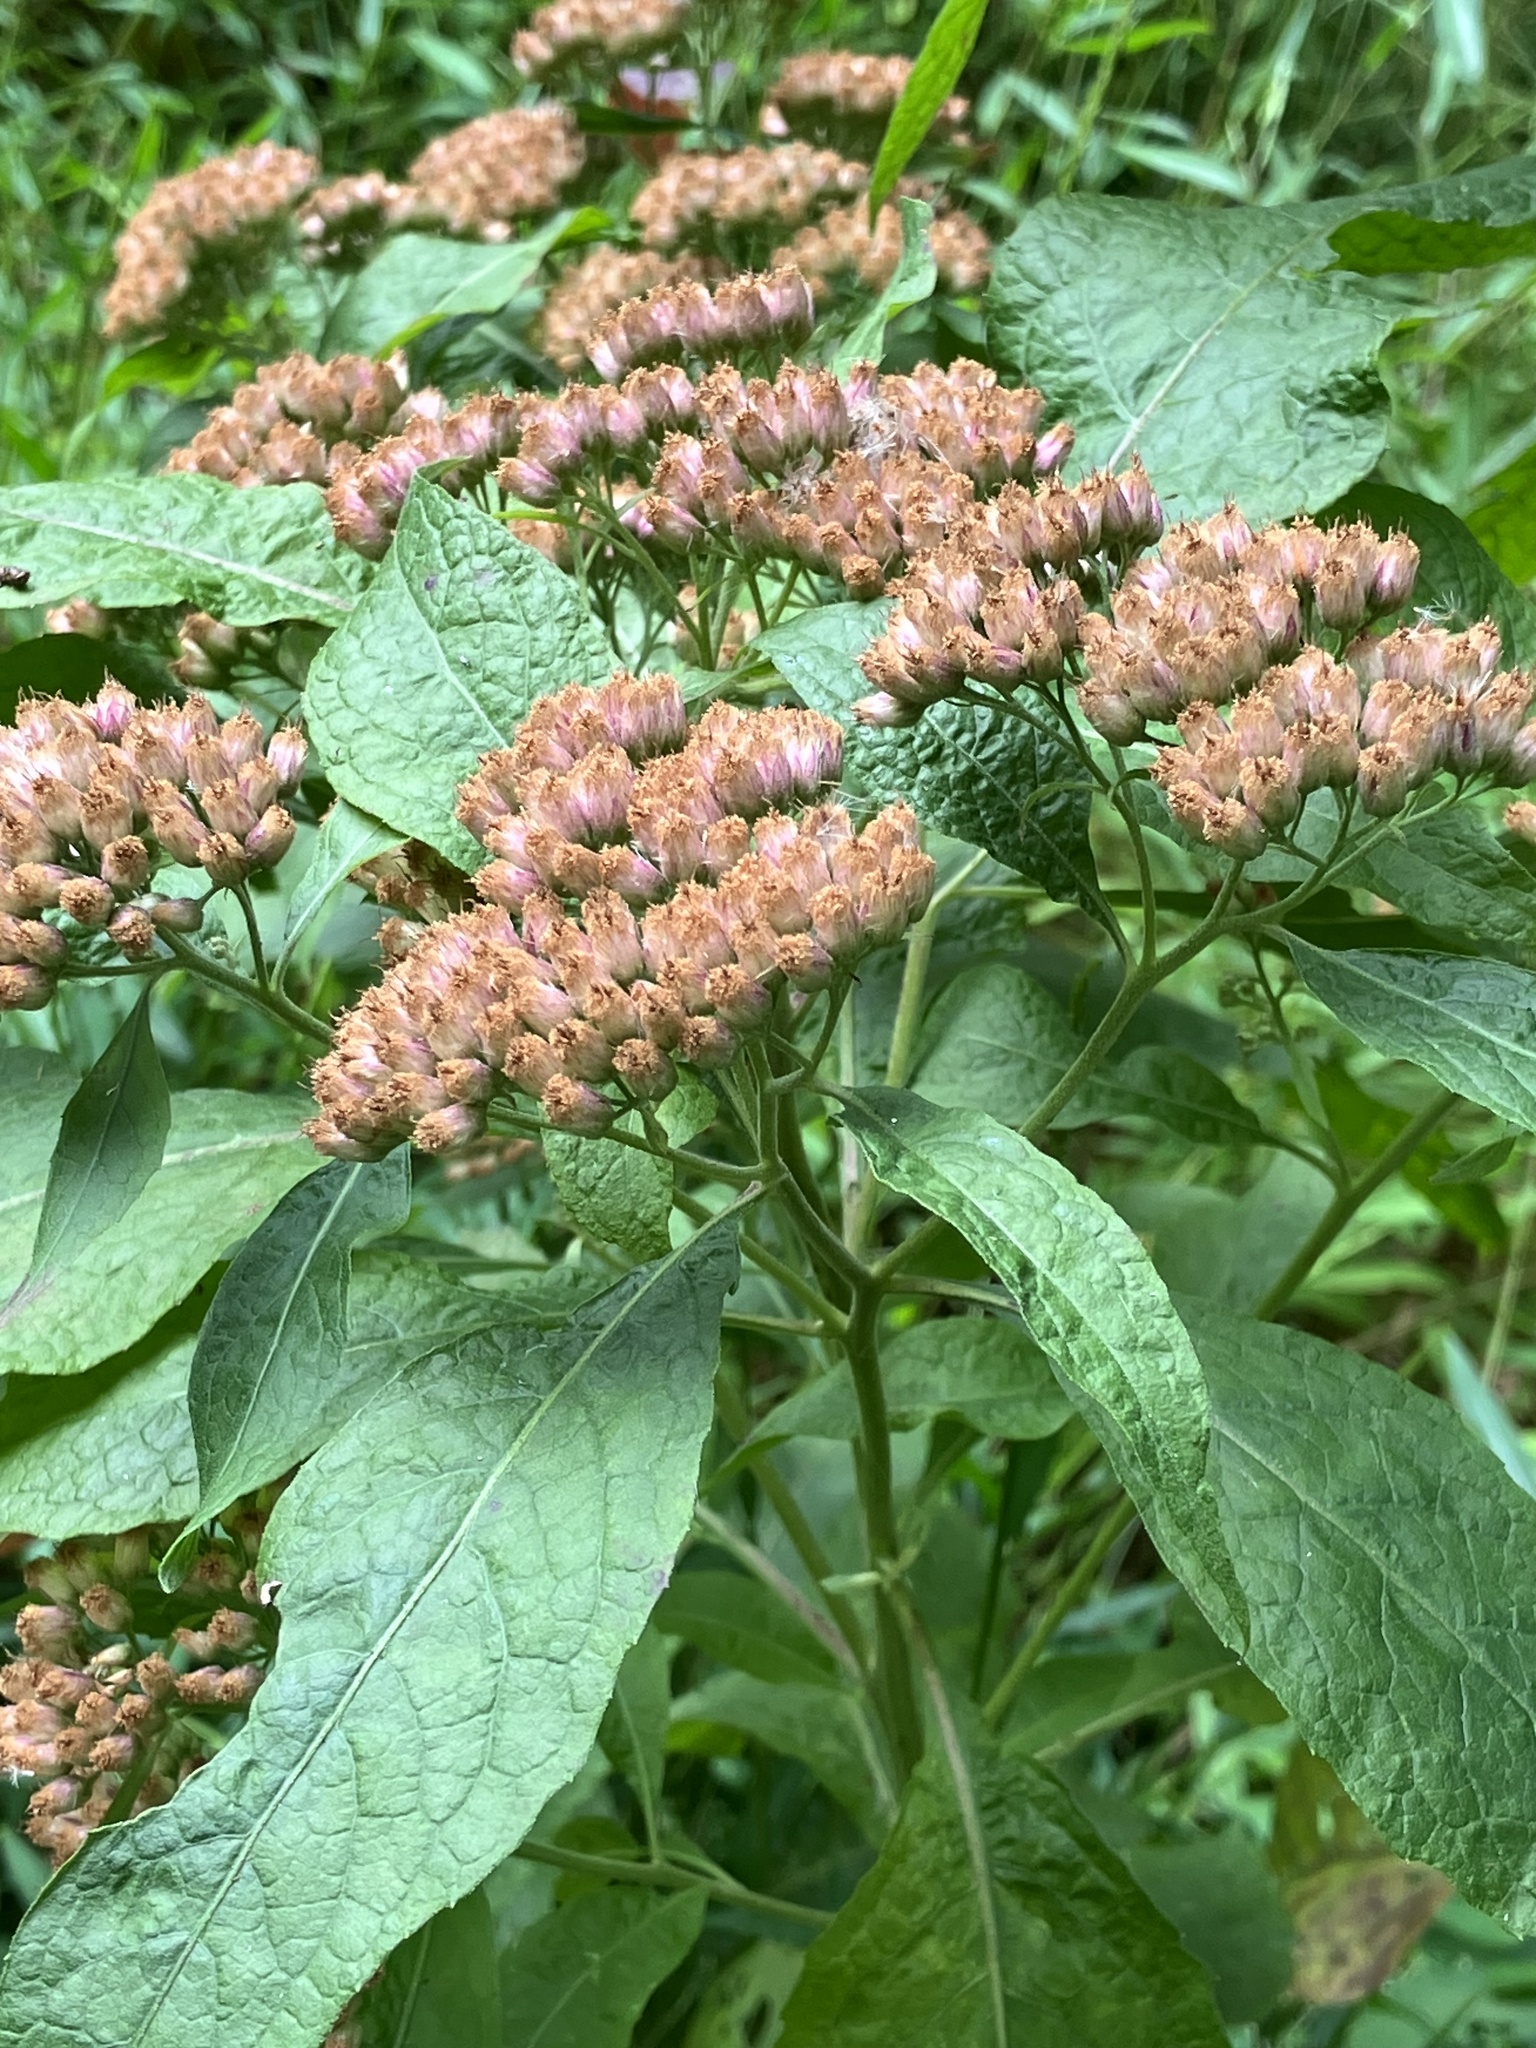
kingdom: Plantae
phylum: Tracheophyta
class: Magnoliopsida
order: Asterales
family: Asteraceae
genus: Pluchea
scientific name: Pluchea camphorata
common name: Camphor pluchea
